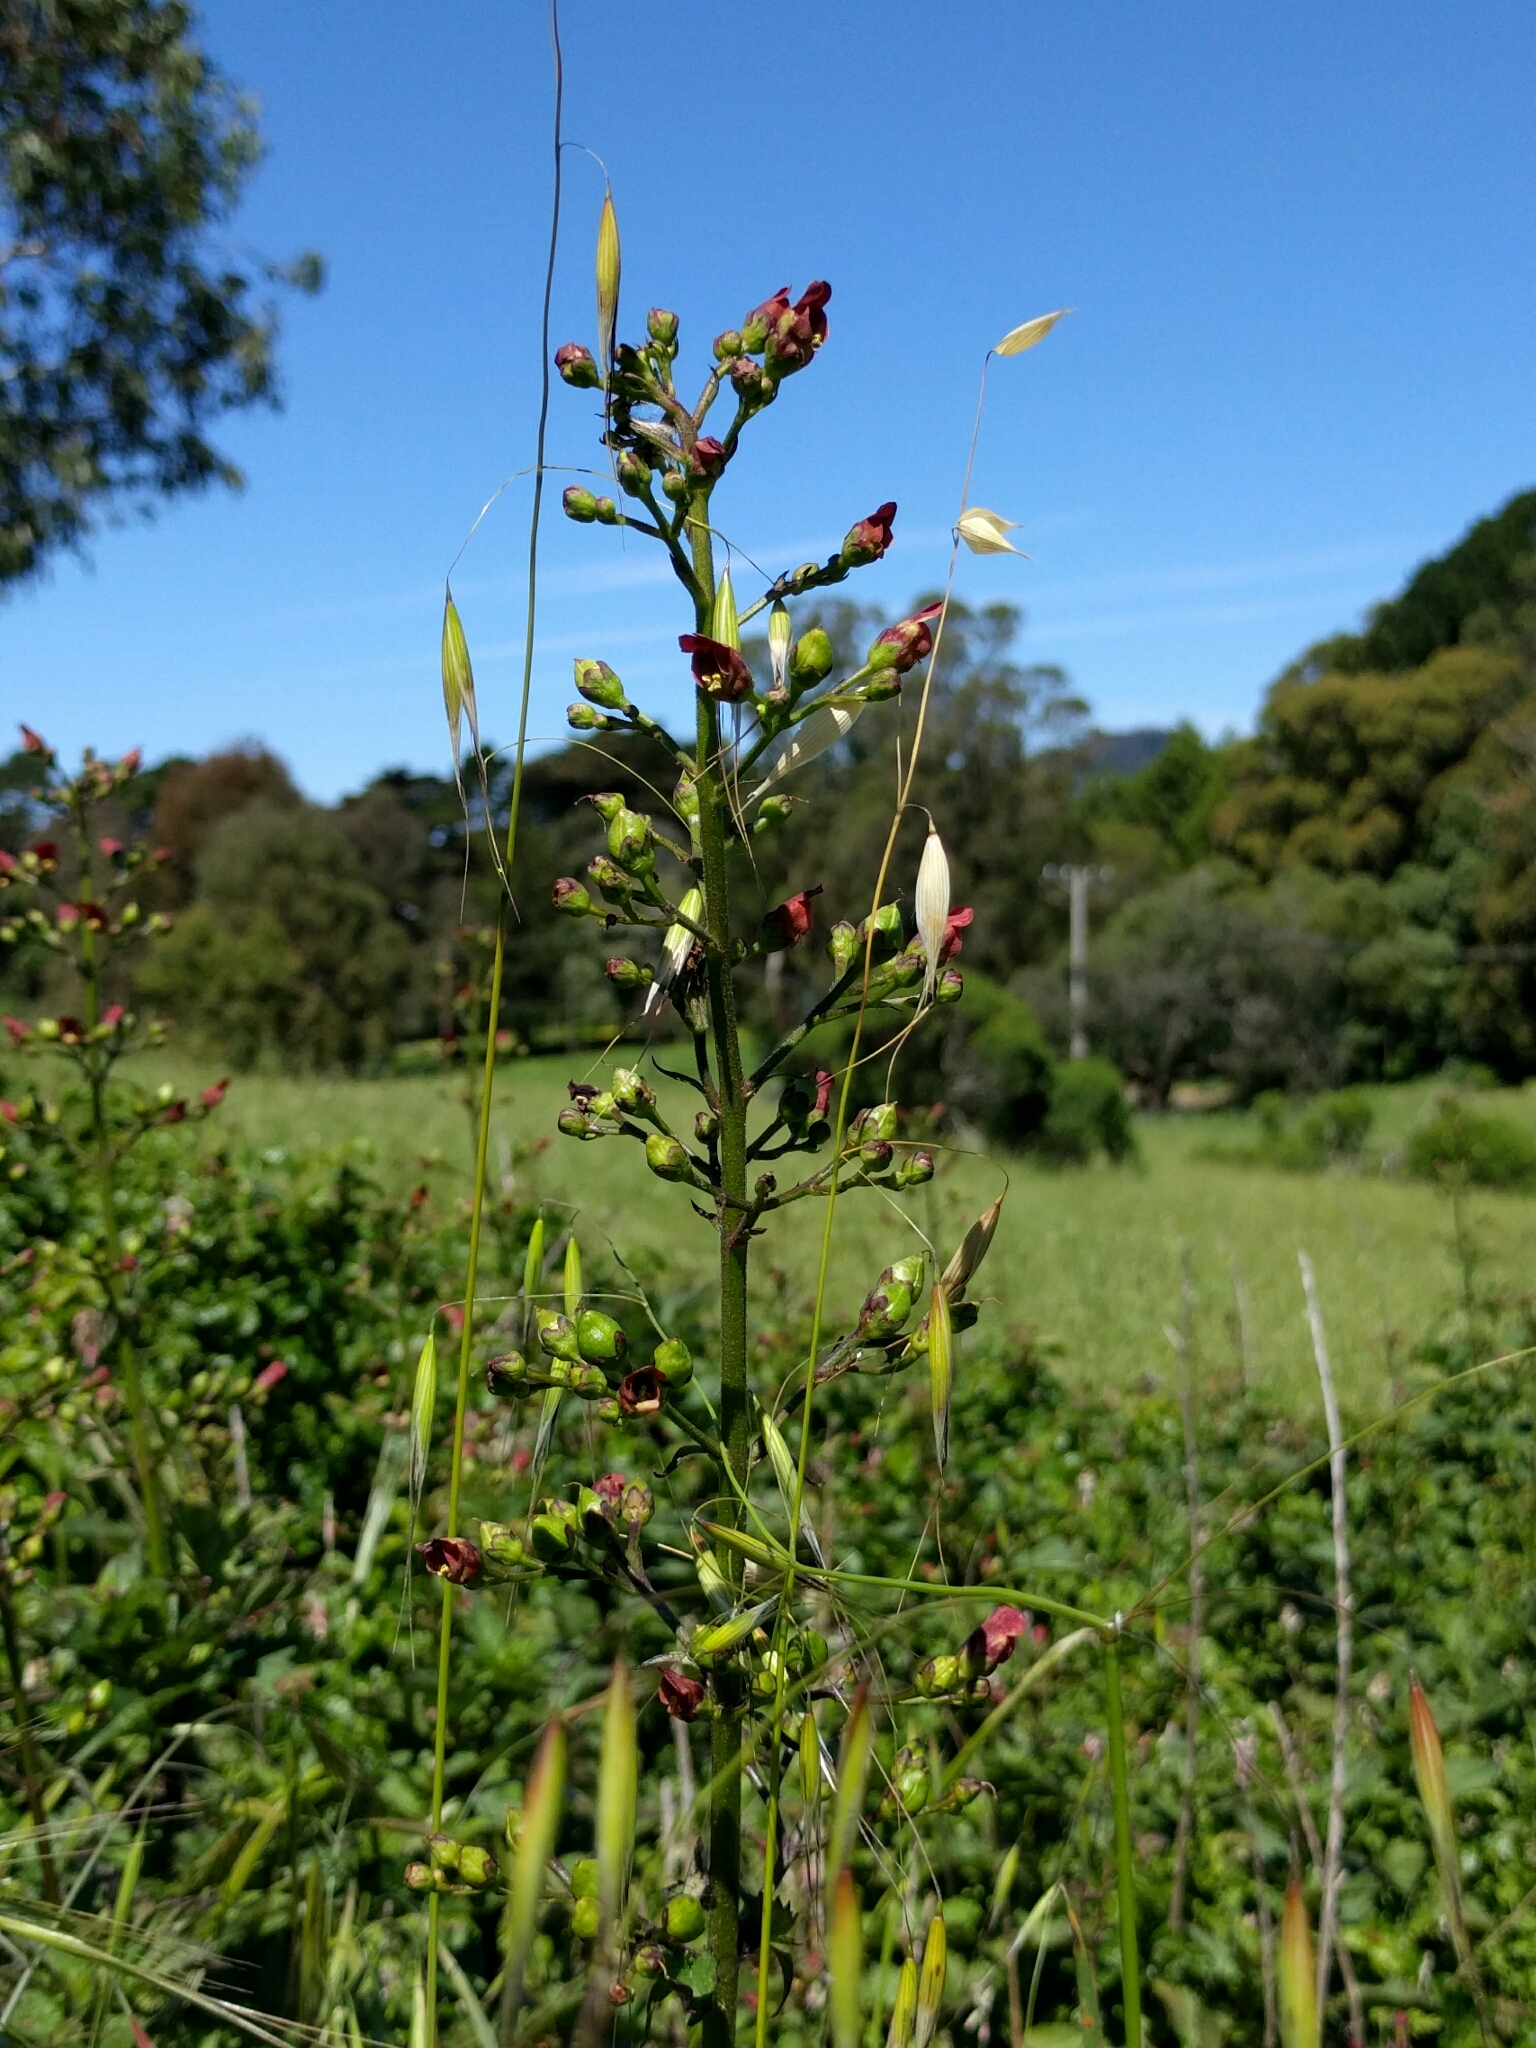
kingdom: Plantae
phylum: Tracheophyta
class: Magnoliopsida
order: Lamiales
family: Scrophulariaceae
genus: Scrophularia
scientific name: Scrophularia californica
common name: California figwort
